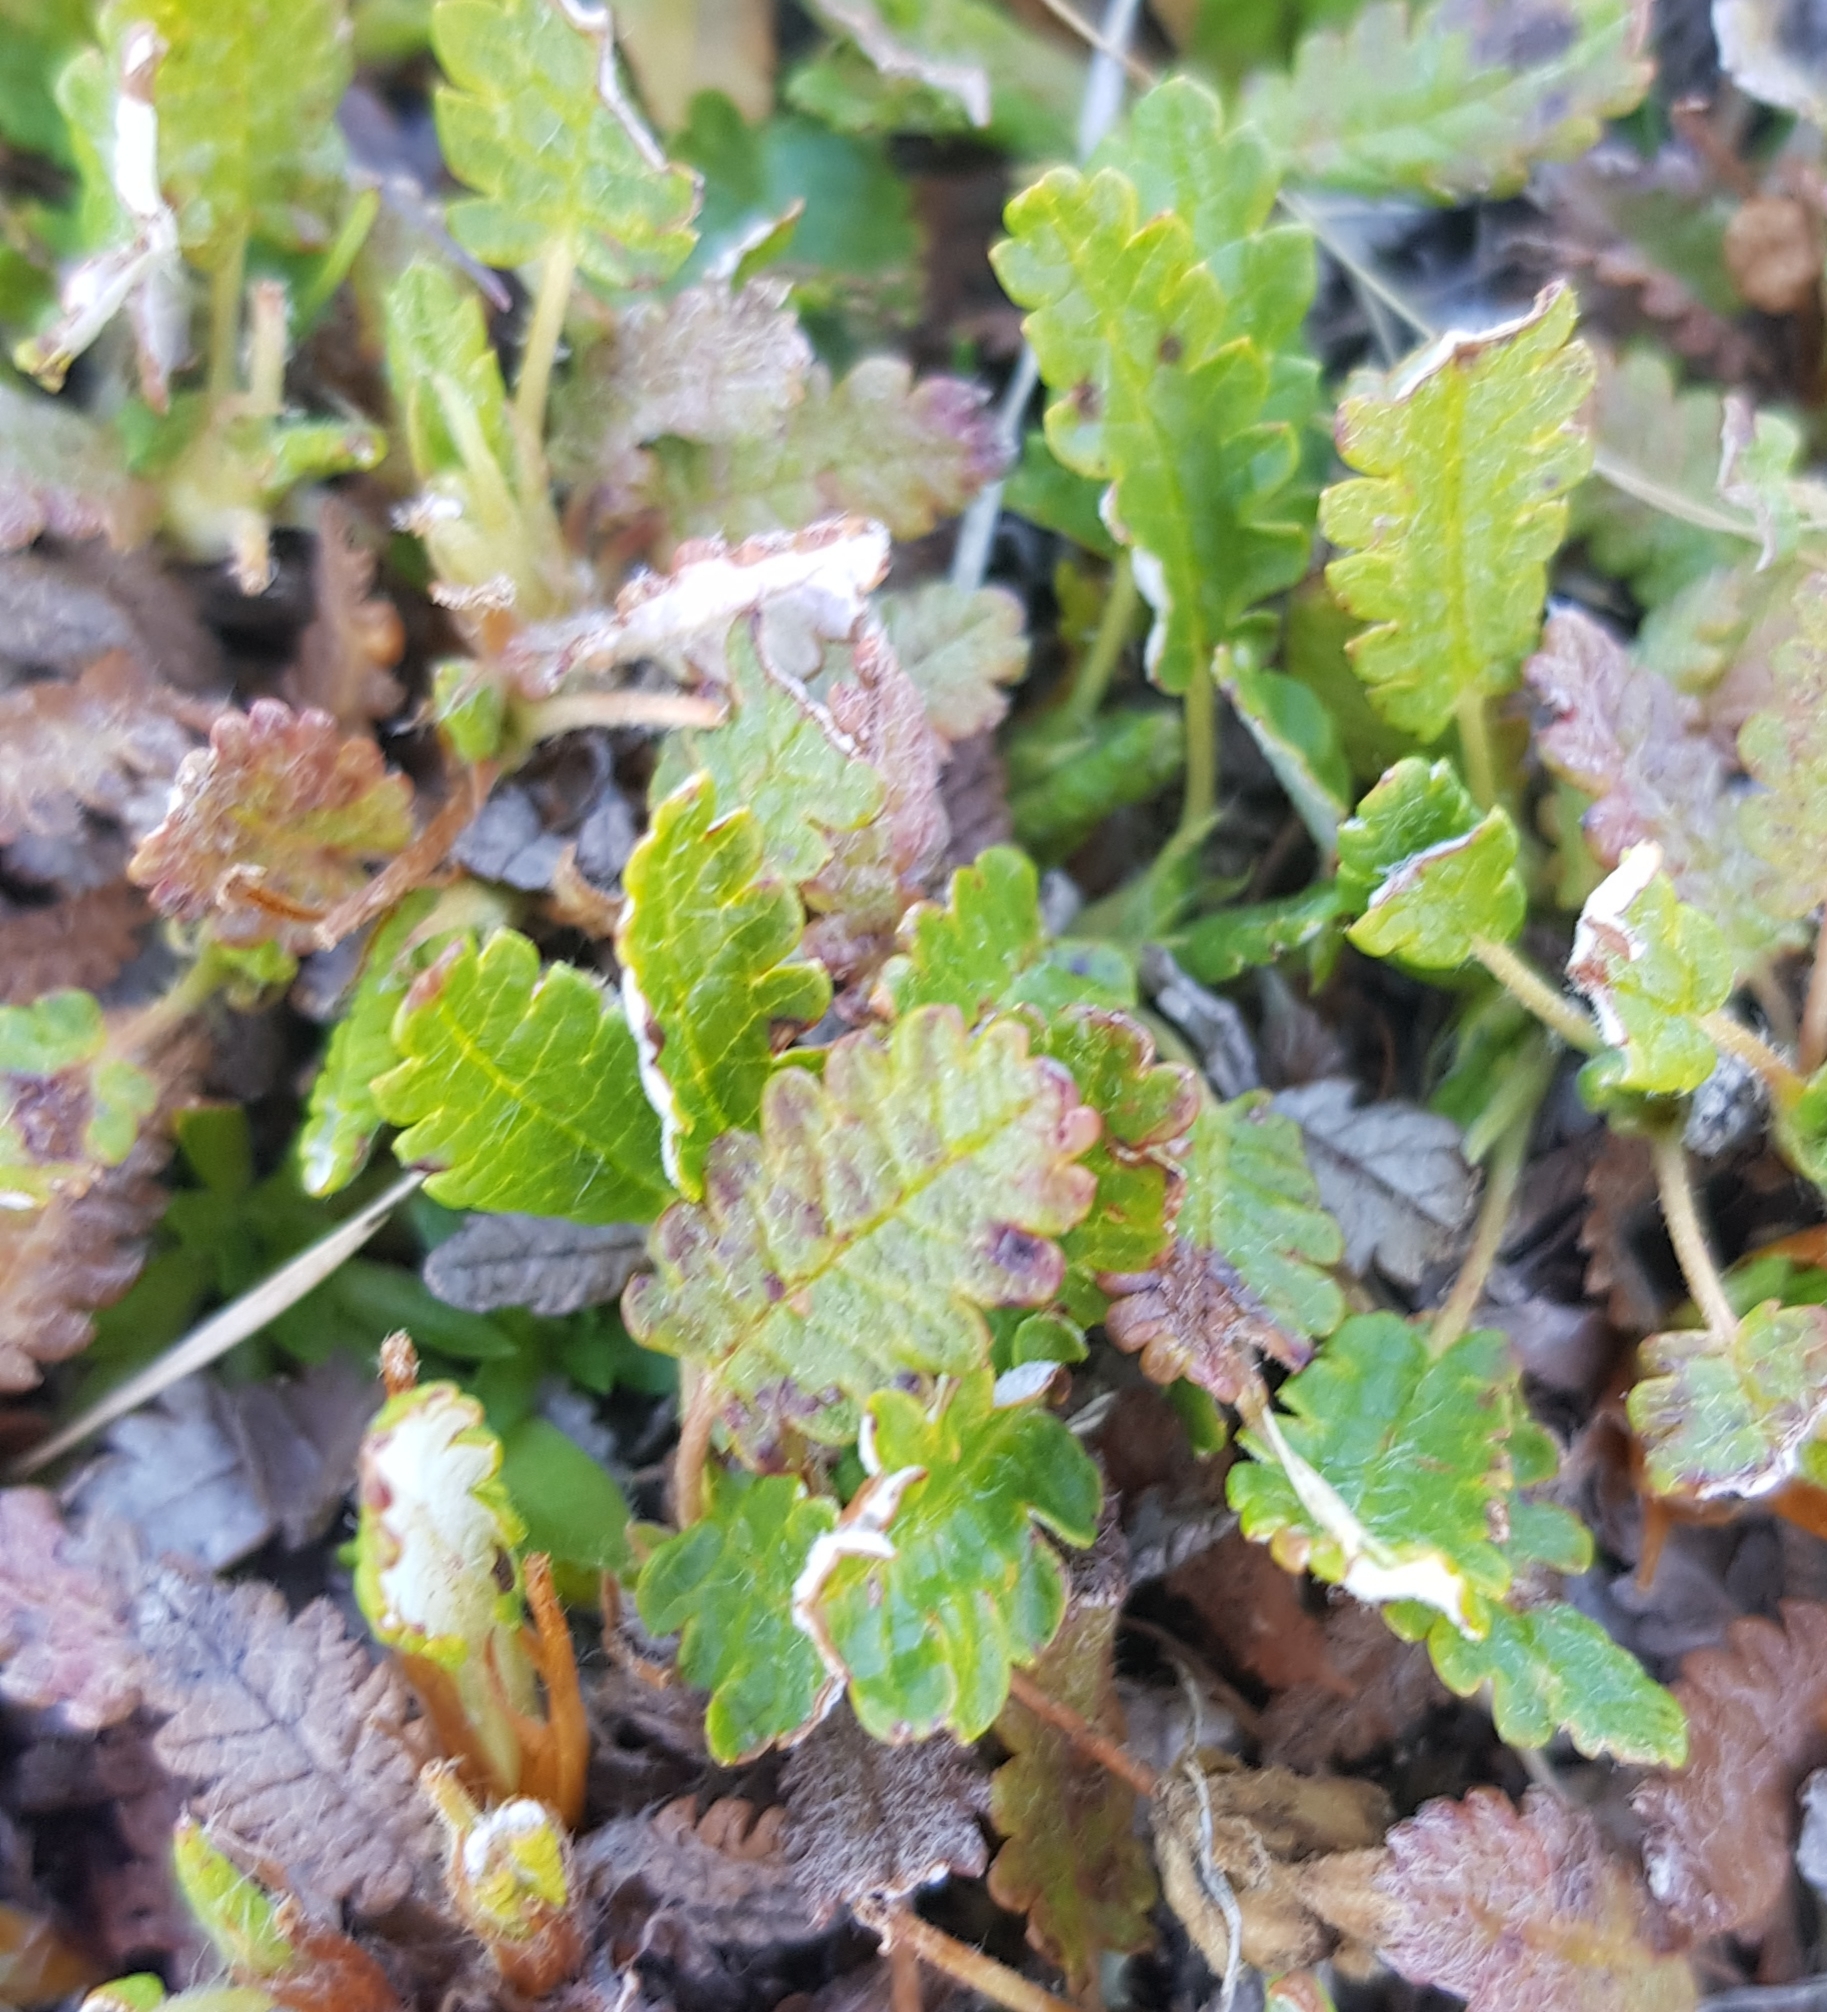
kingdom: Plantae
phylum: Tracheophyta
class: Magnoliopsida
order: Rosales
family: Rosaceae
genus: Dryas
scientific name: Dryas octopetala
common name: Eight-petal mountain-avens
